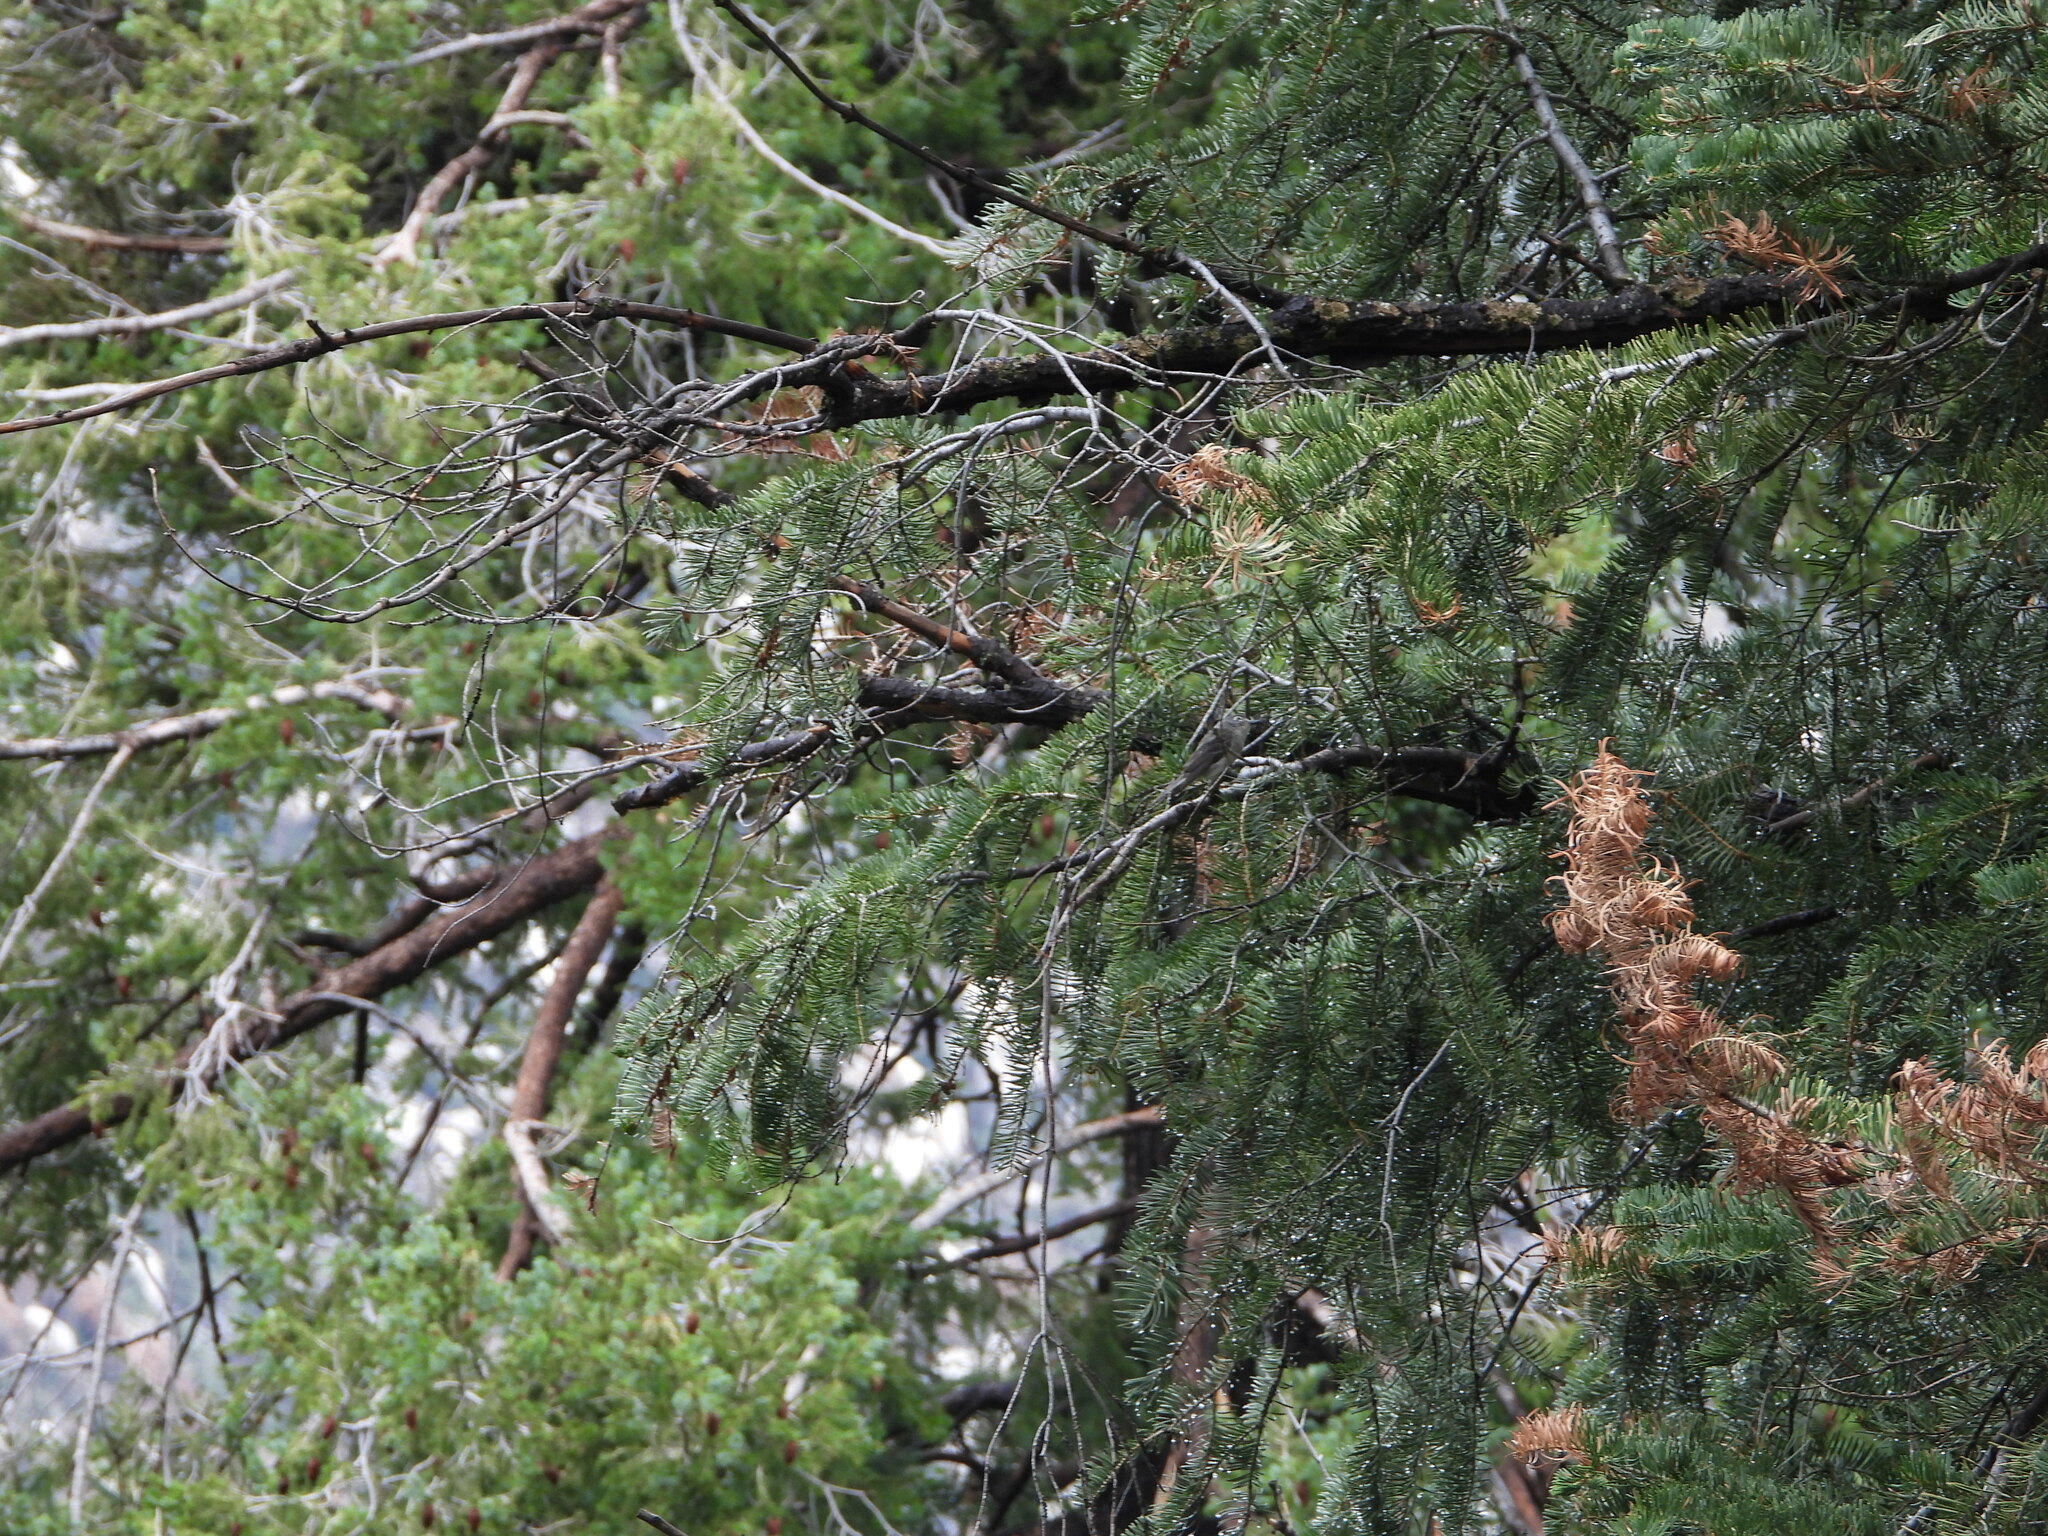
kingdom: Animalia
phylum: Chordata
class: Aves
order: Passeriformes
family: Vireonidae
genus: Vireo
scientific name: Vireo plumbeus
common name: Plumbeous vireo
